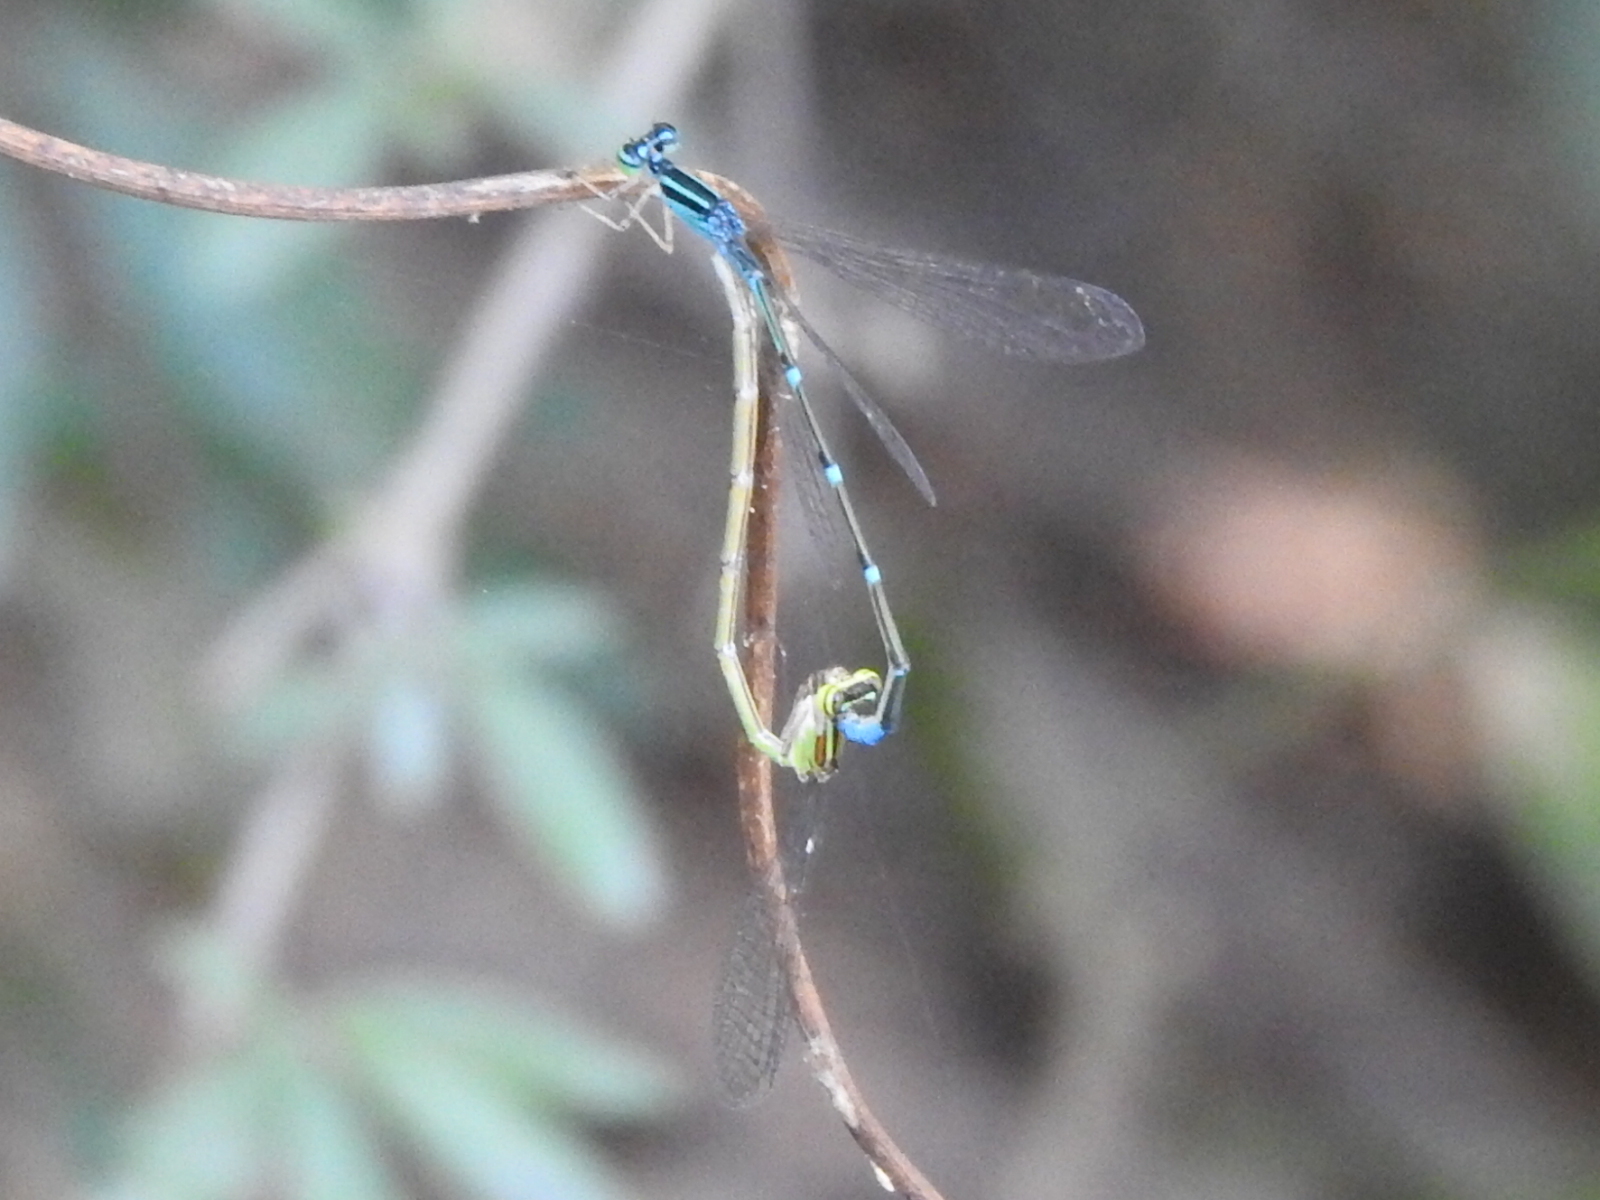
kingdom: Animalia
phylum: Arthropoda
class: Insecta
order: Odonata
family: Coenagrionidae
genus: Enallagma
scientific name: Enallagma exsulans
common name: Stream bluet
